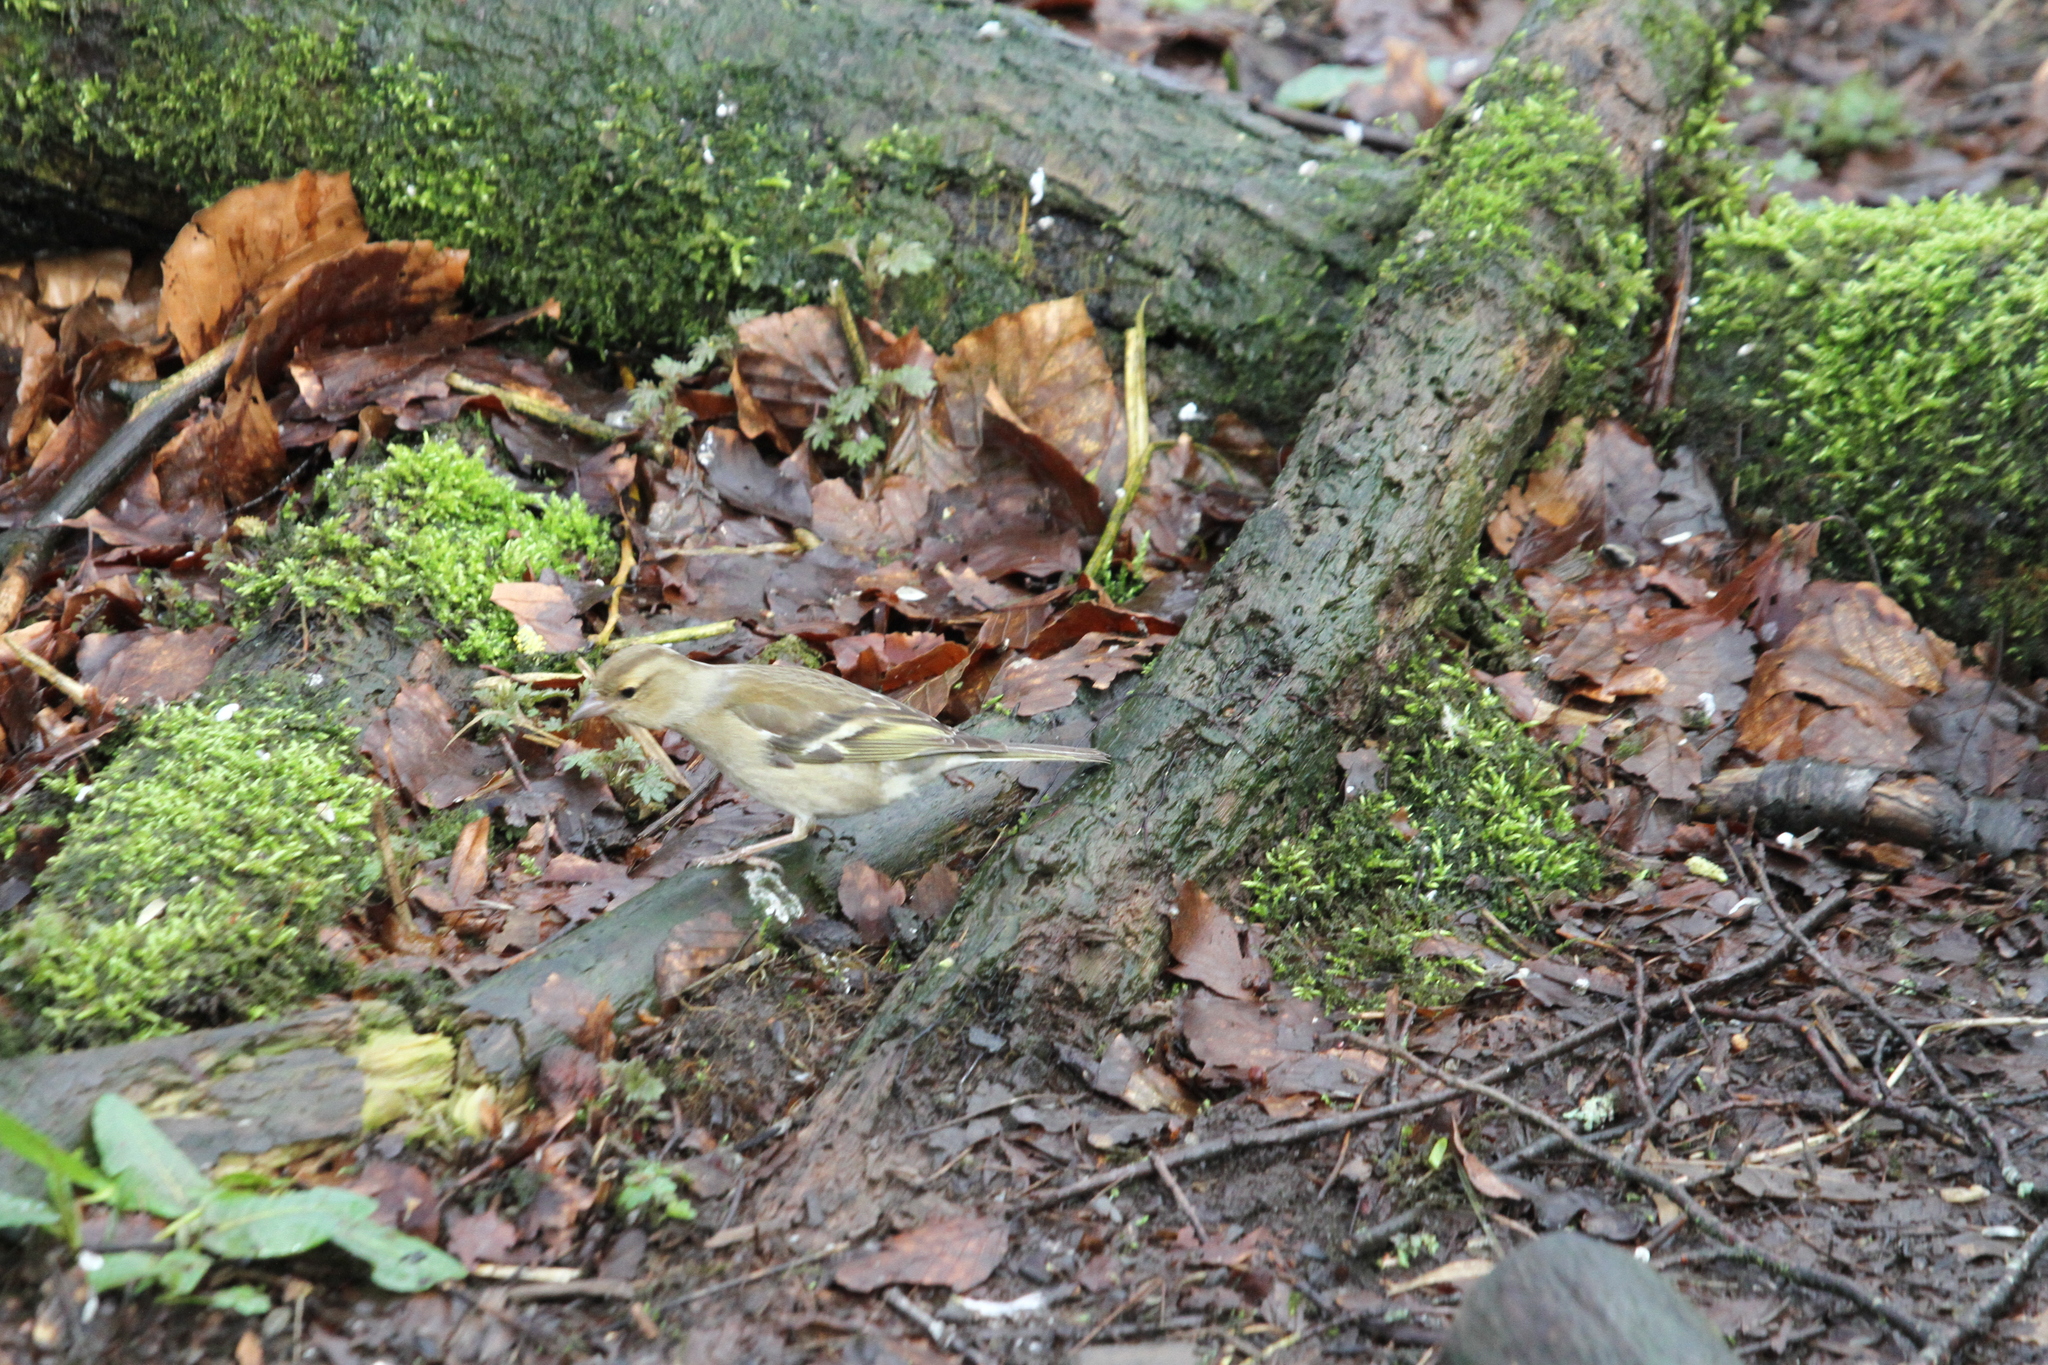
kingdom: Animalia
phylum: Chordata
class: Aves
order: Passeriformes
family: Fringillidae
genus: Fringilla
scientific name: Fringilla coelebs
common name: Common chaffinch
